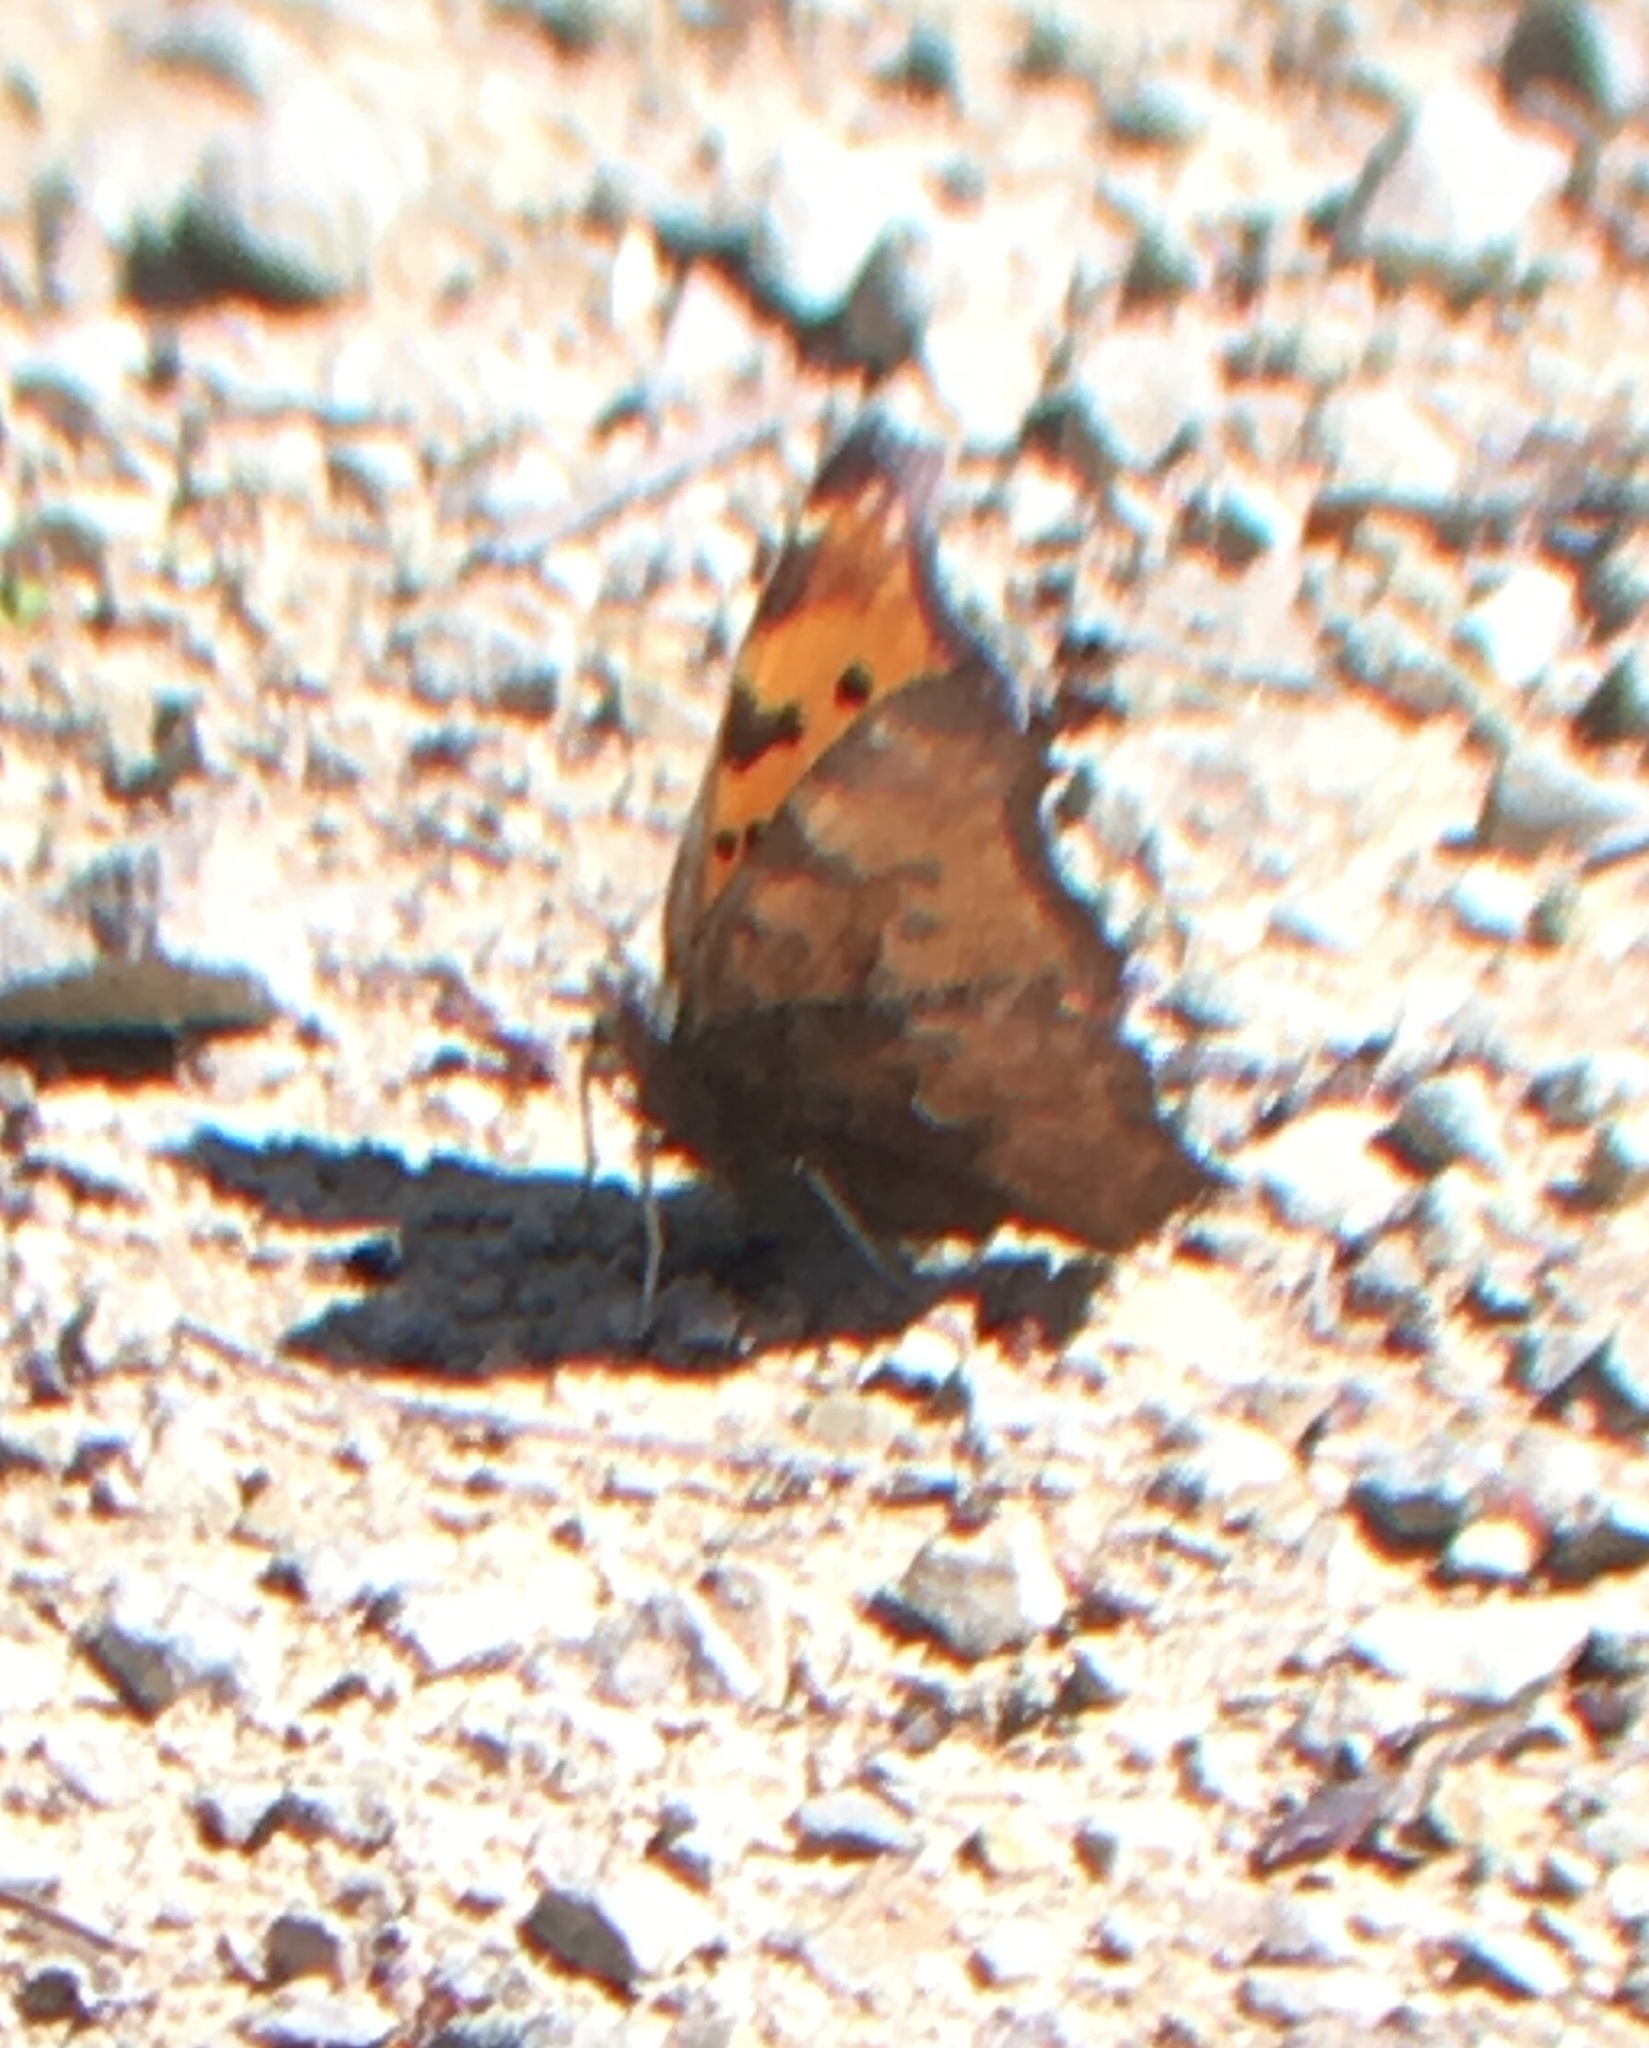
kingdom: Animalia
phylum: Arthropoda
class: Insecta
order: Lepidoptera
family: Nymphalidae
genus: Polygonia
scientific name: Polygonia comma
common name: Eastern comma
